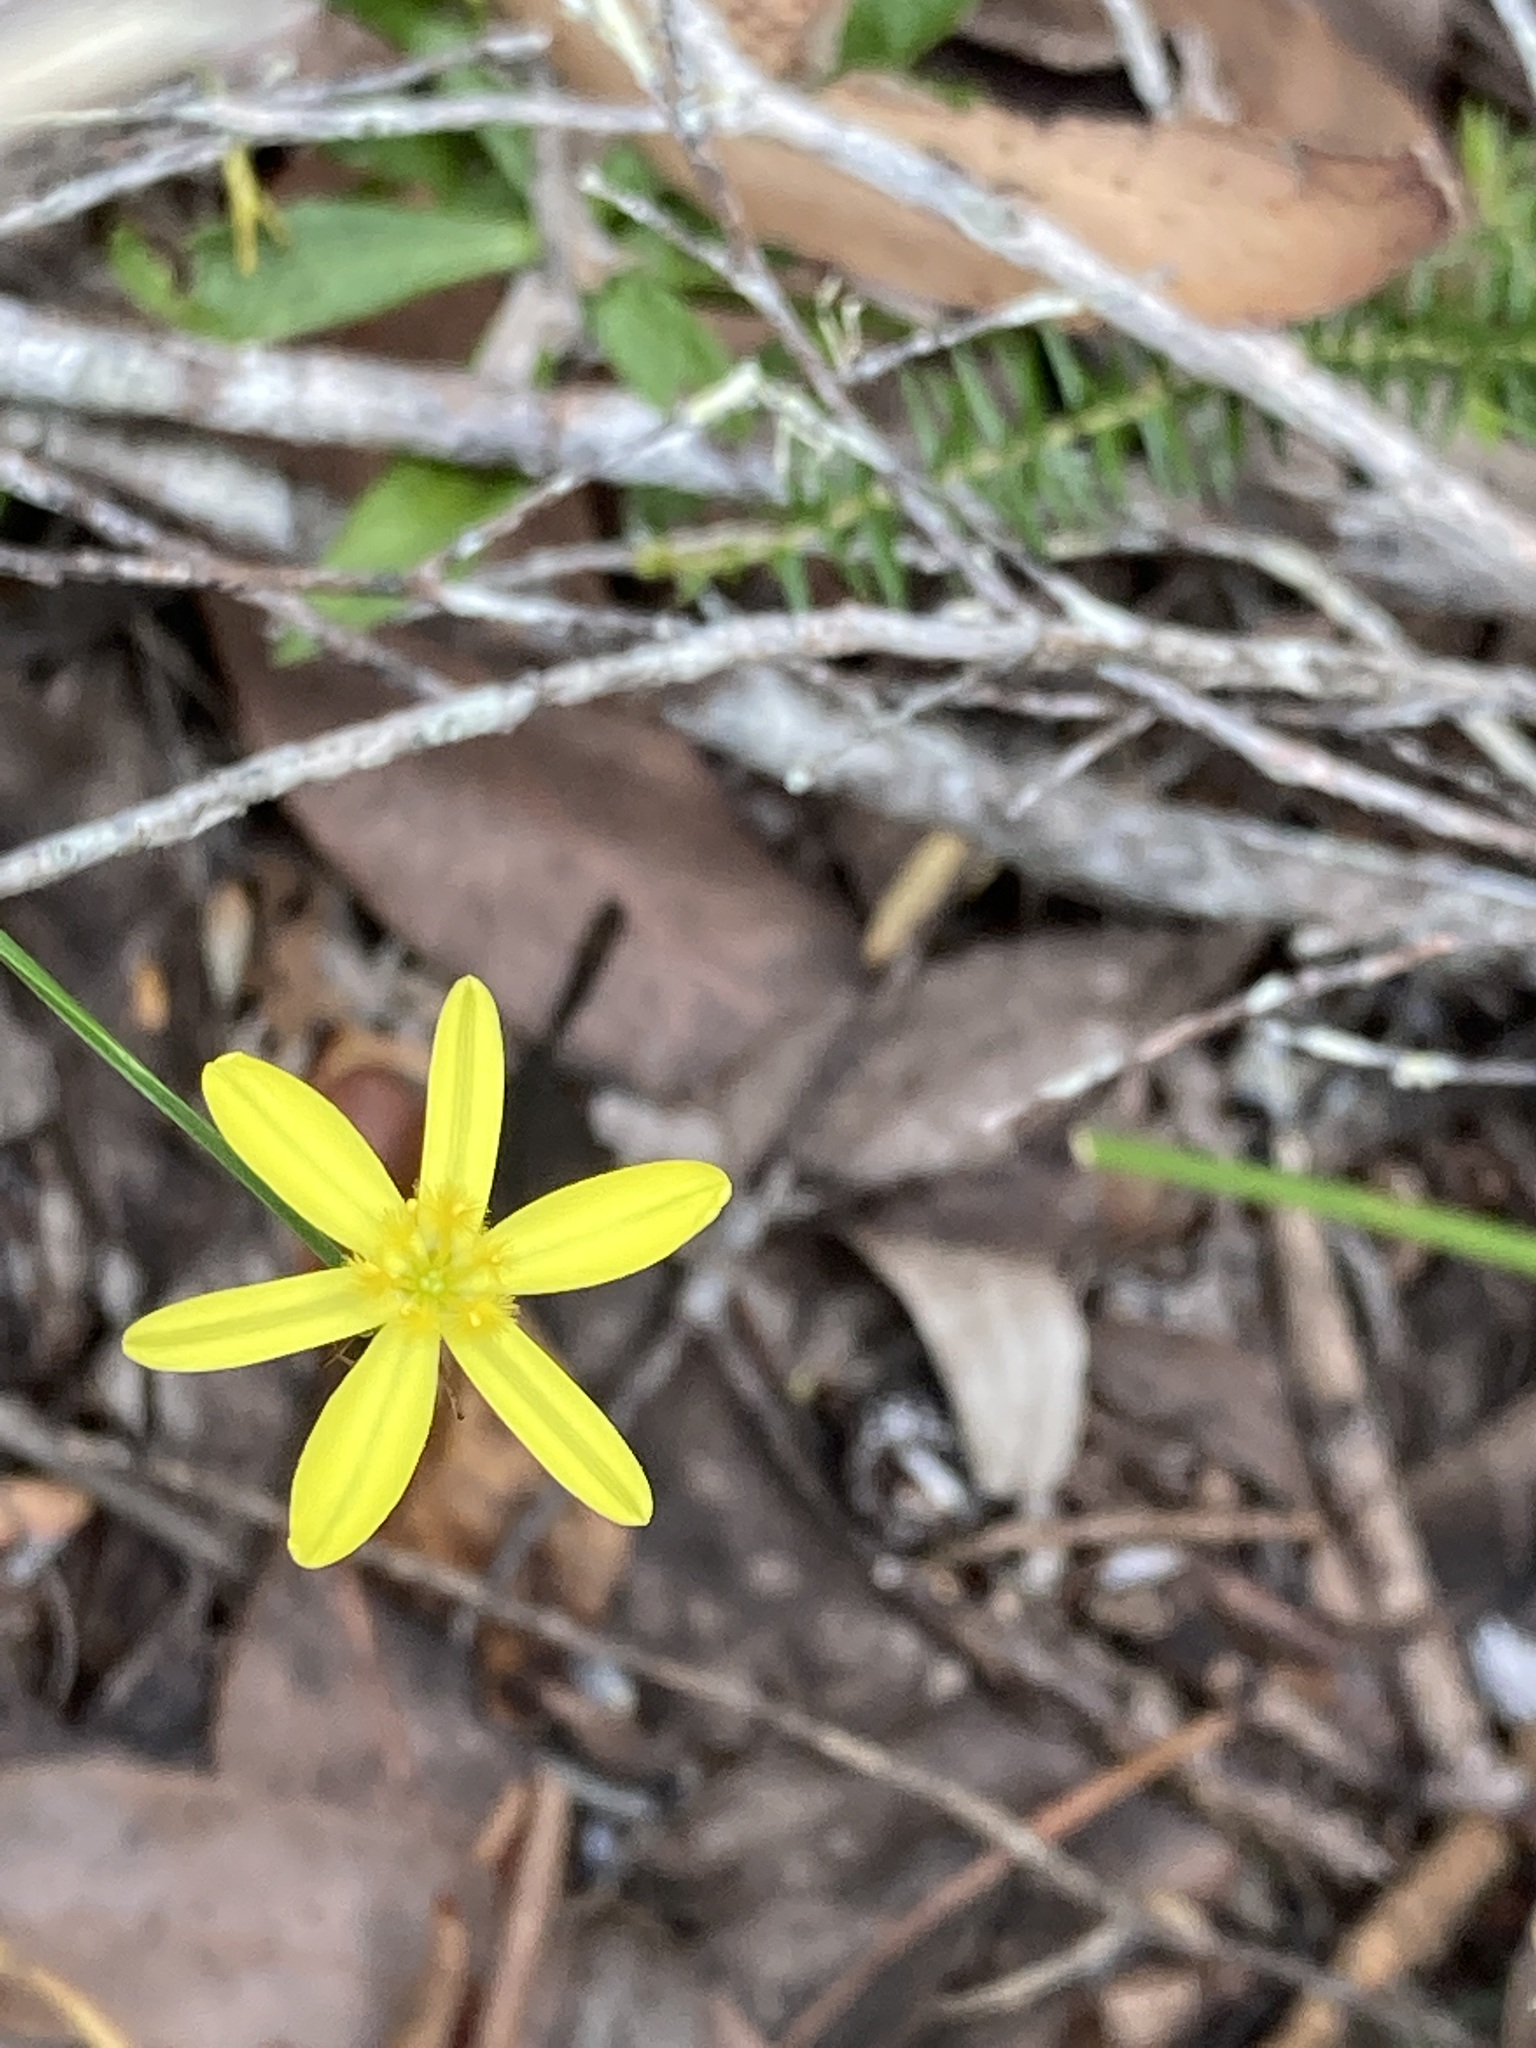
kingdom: Plantae
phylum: Tracheophyta
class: Liliopsida
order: Asparagales
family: Asphodelaceae
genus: Tricoryne
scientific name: Tricoryne elatior
